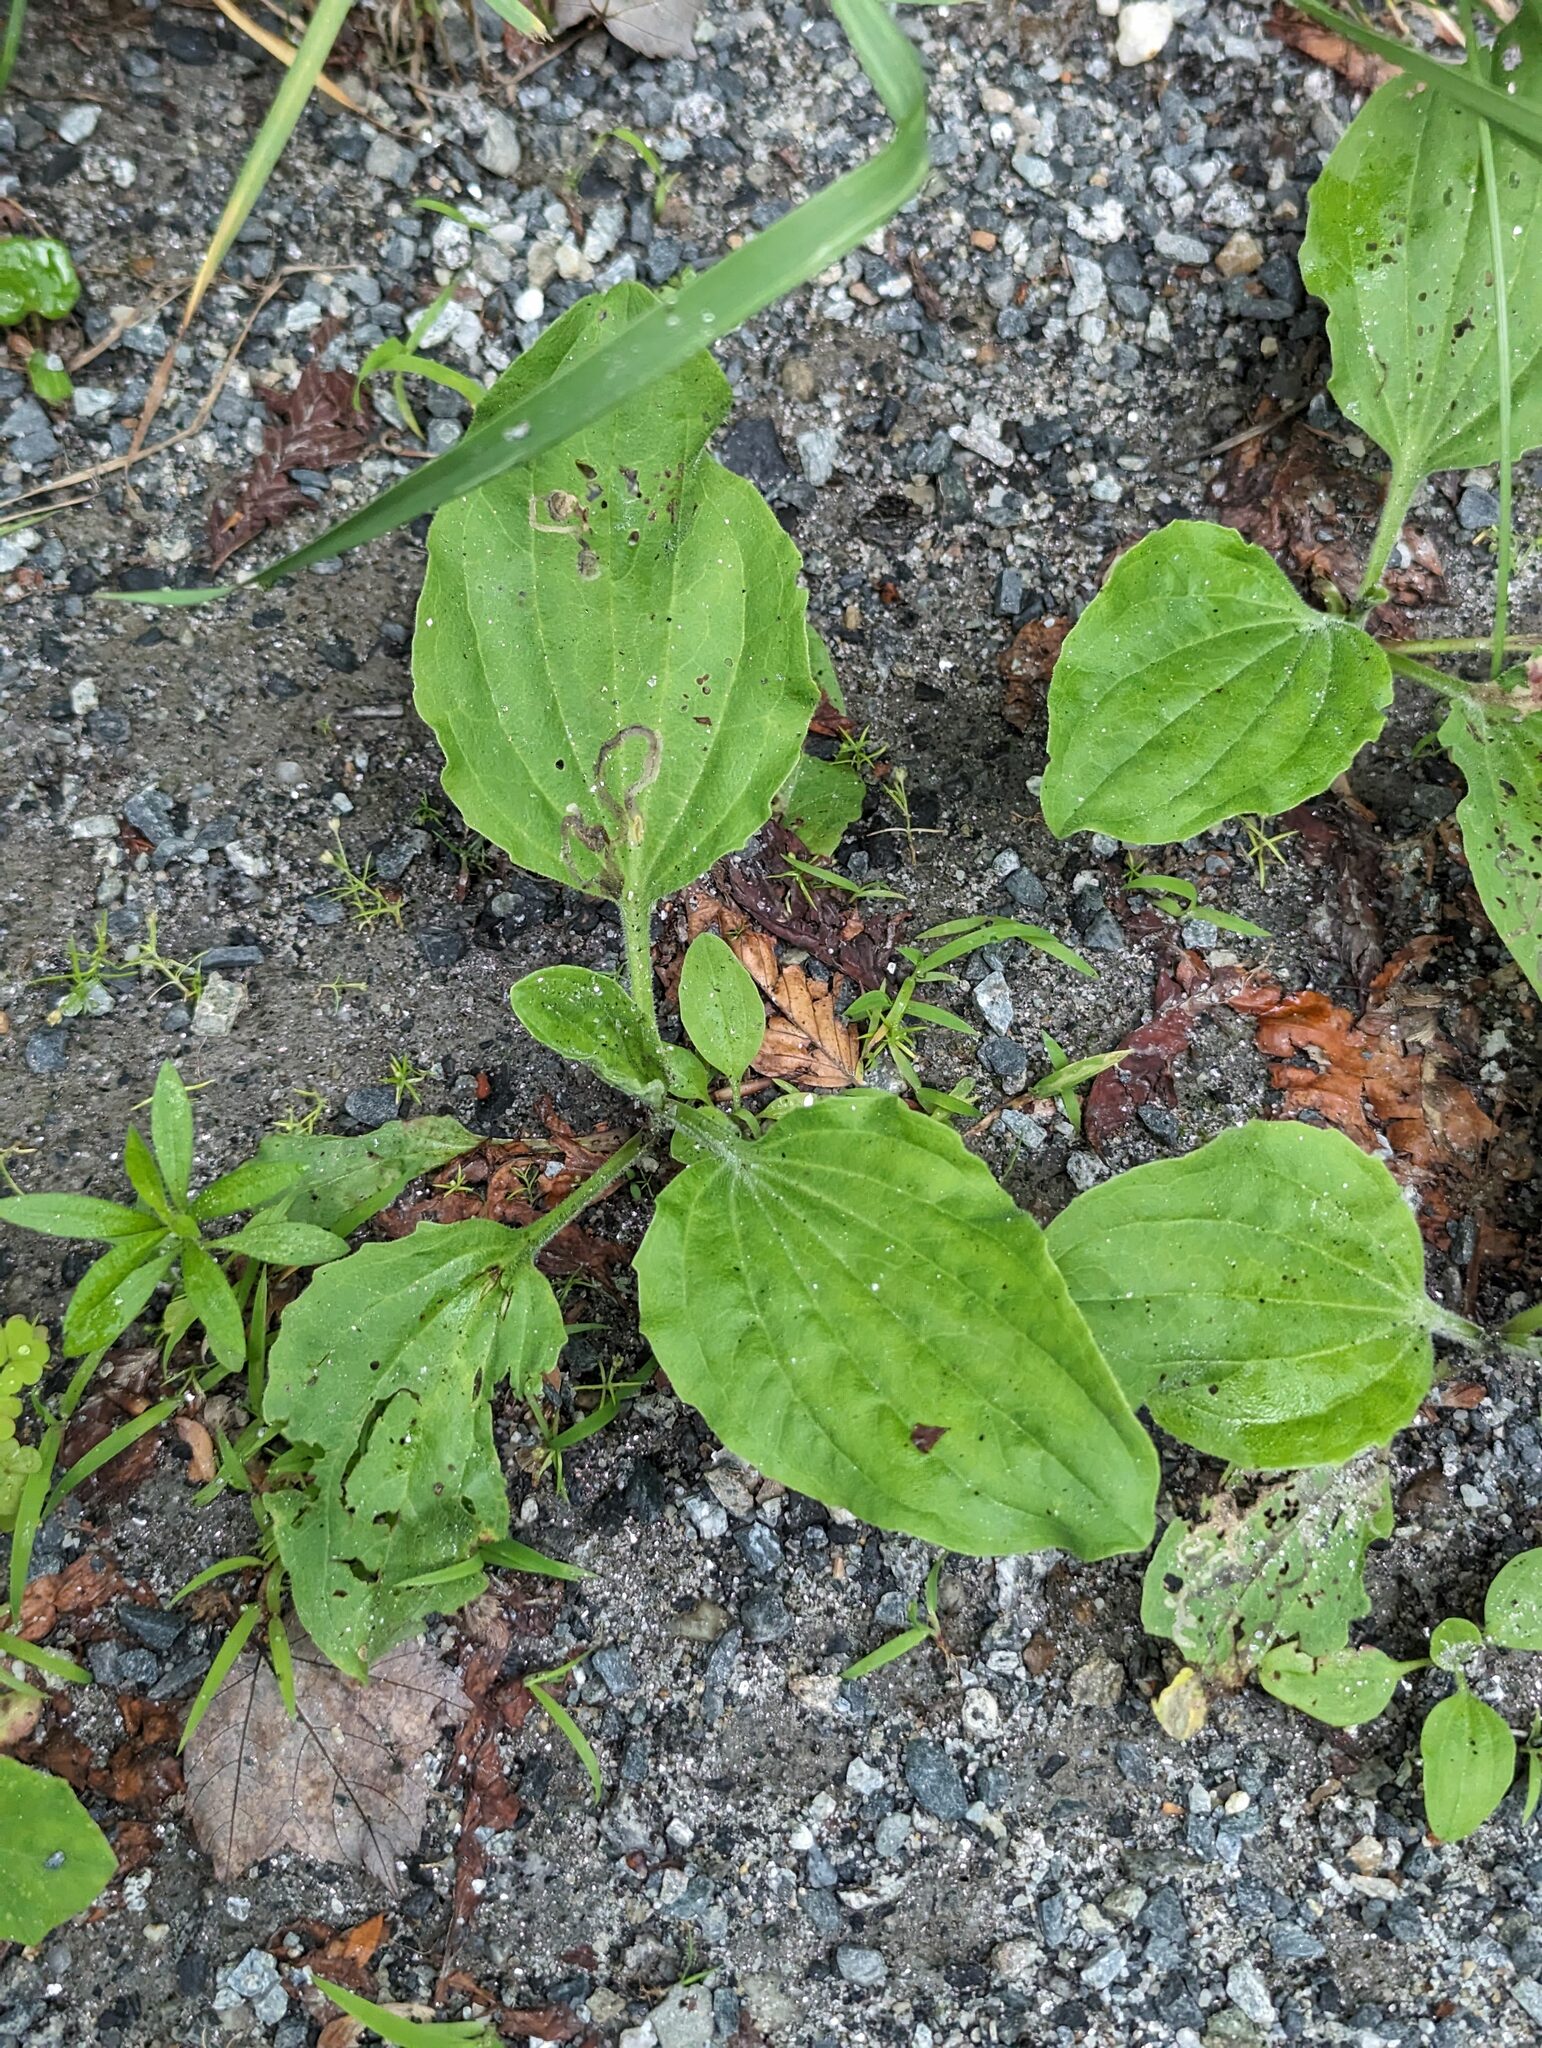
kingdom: Plantae
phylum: Tracheophyta
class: Magnoliopsida
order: Lamiales
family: Plantaginaceae
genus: Plantago
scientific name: Plantago major
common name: Common plantain
